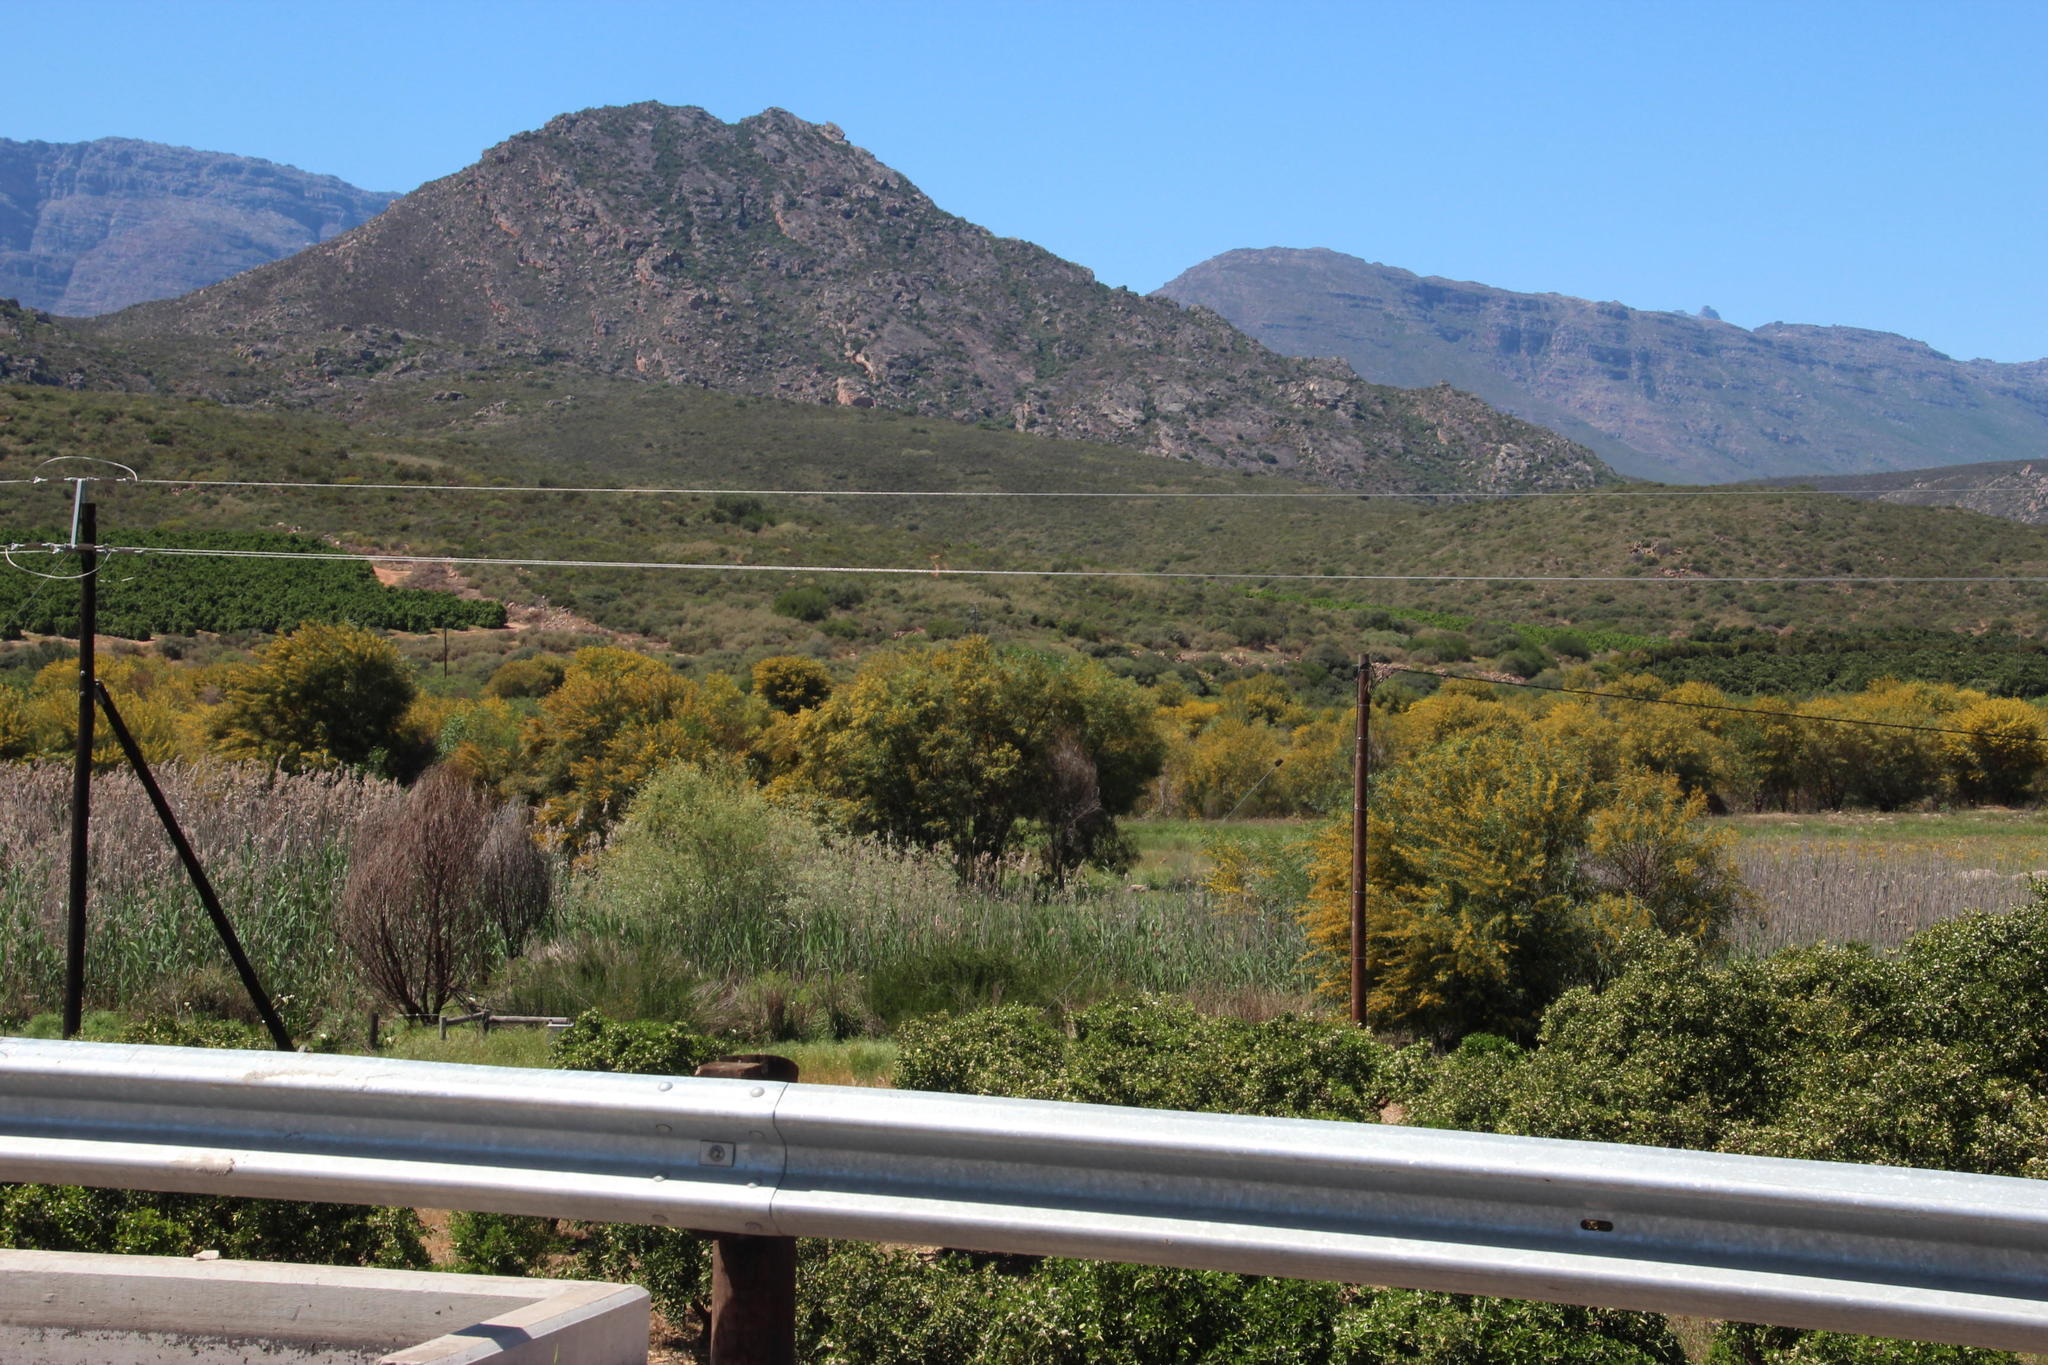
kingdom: Plantae
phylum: Tracheophyta
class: Magnoliopsida
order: Fabales
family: Fabaceae
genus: Acacia
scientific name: Acacia saligna
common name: Orange wattle
